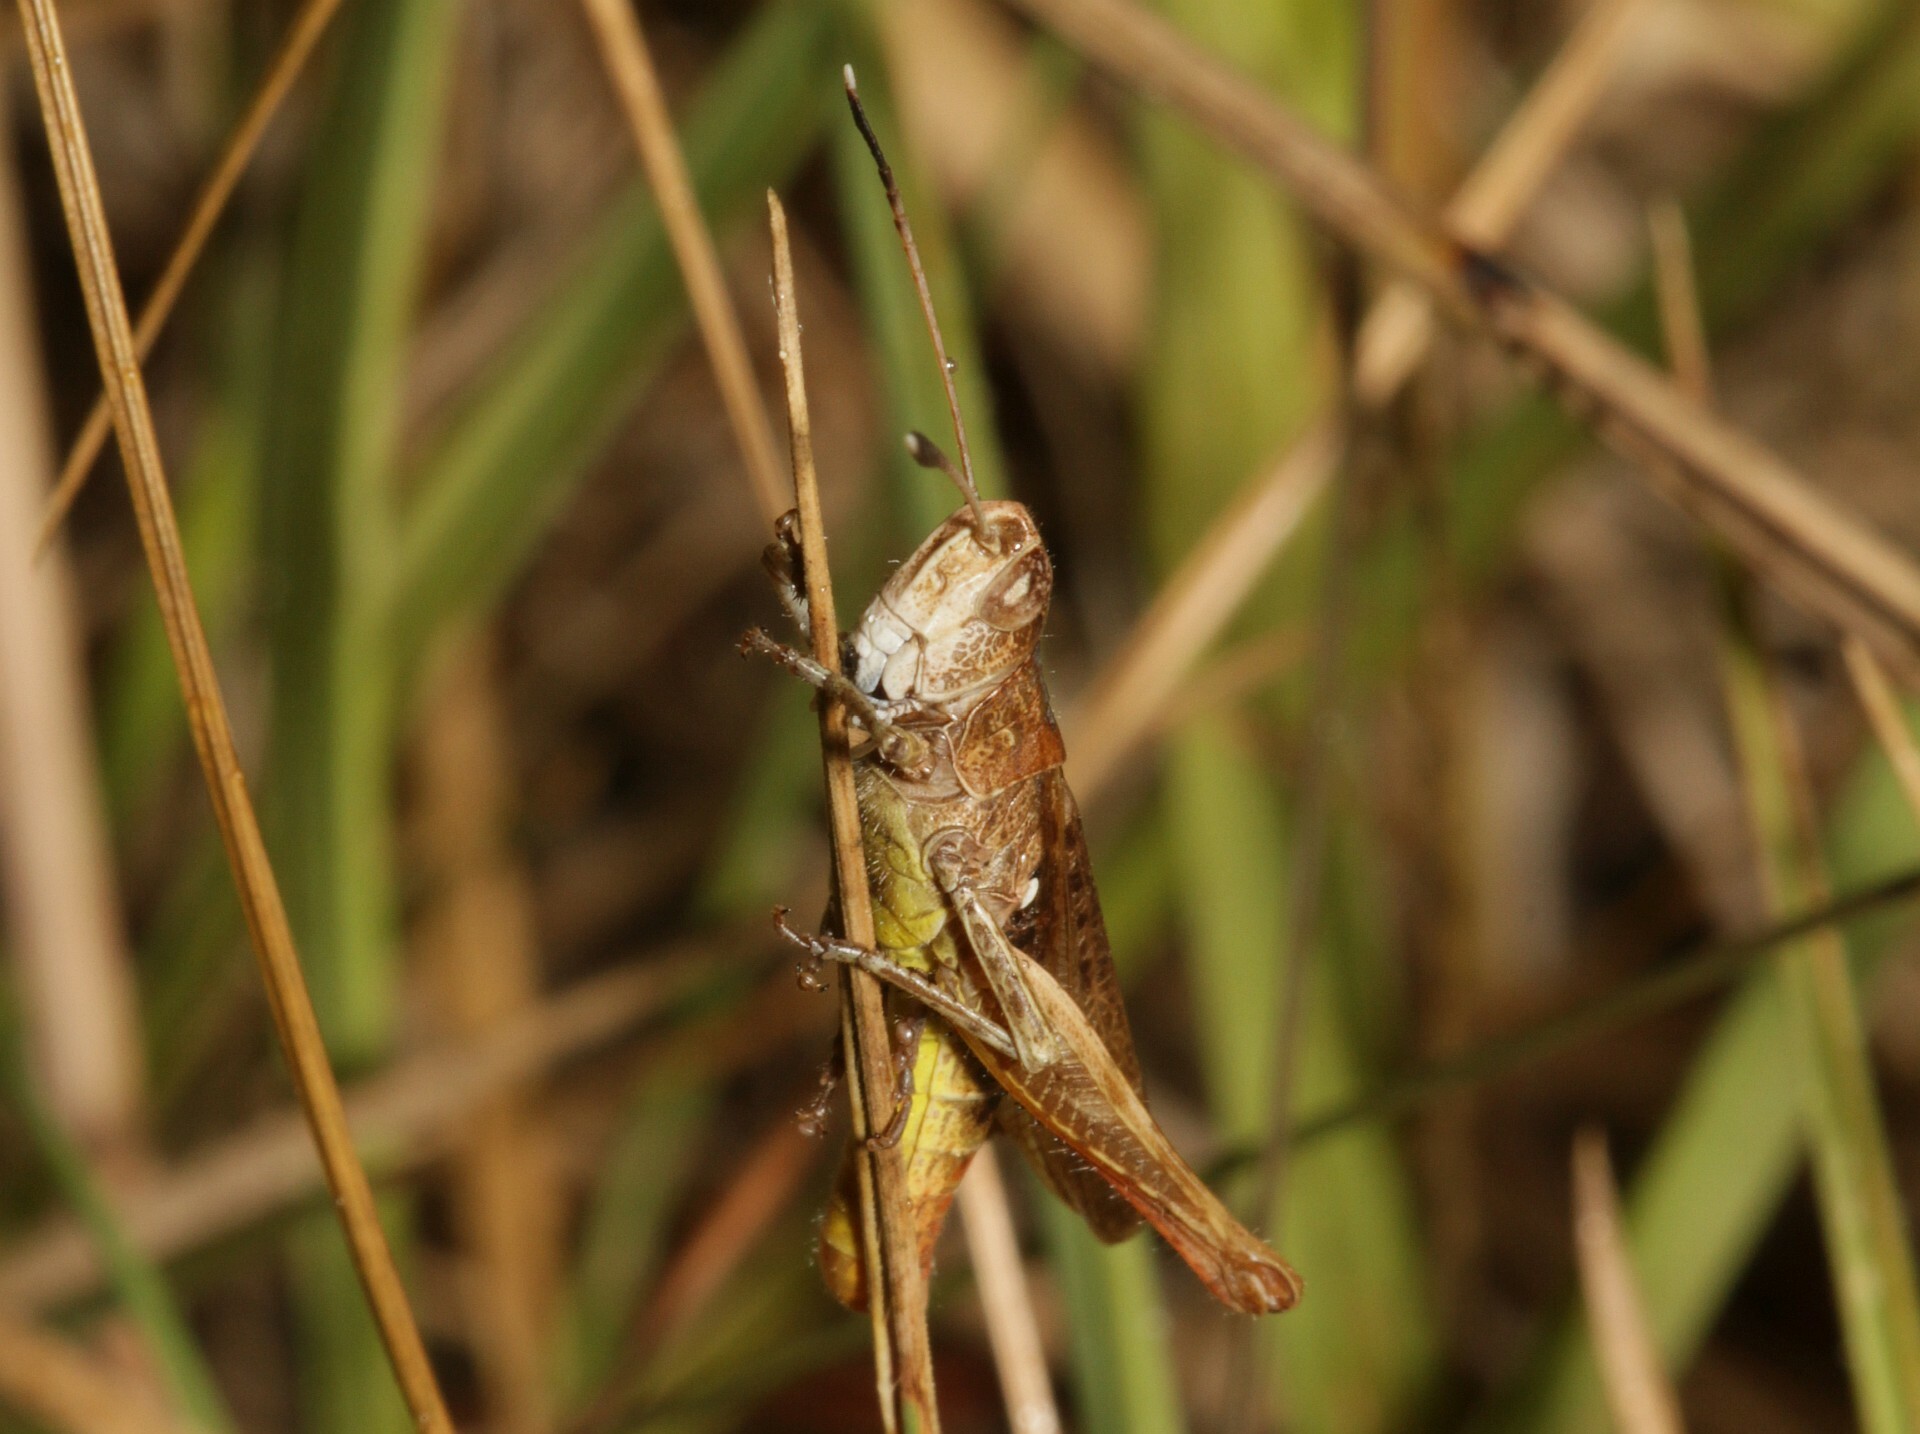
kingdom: Animalia
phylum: Arthropoda
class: Insecta
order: Orthoptera
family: Acrididae
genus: Gomphocerippus
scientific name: Gomphocerippus rufus
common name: Rufous grasshopper
